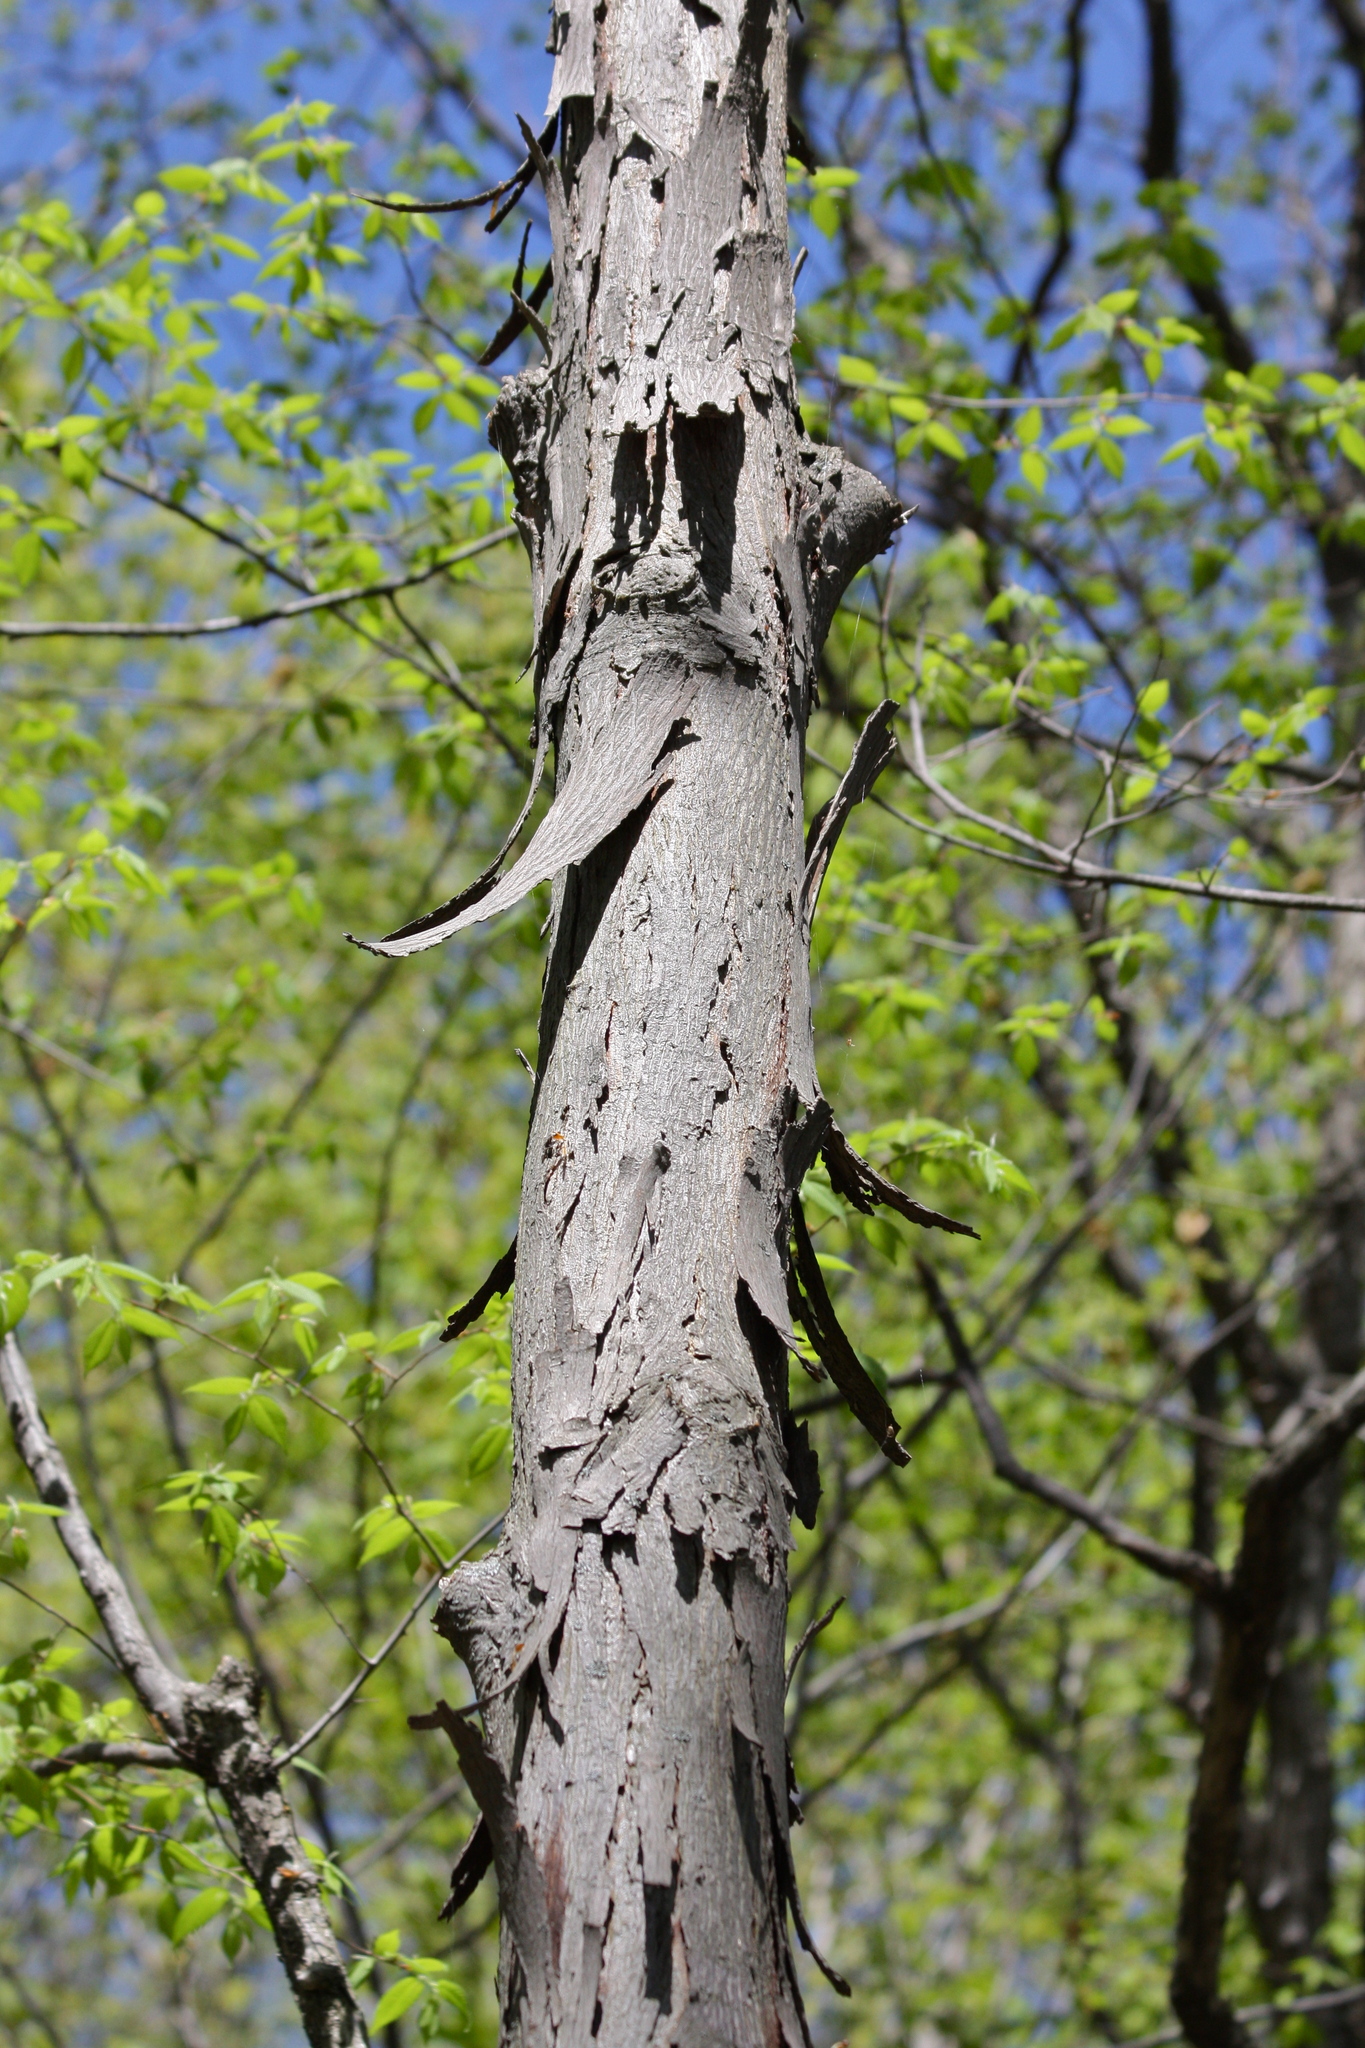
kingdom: Plantae
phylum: Tracheophyta
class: Magnoliopsida
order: Fagales
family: Juglandaceae
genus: Carya
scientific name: Carya ovata
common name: Shagbark hickory
